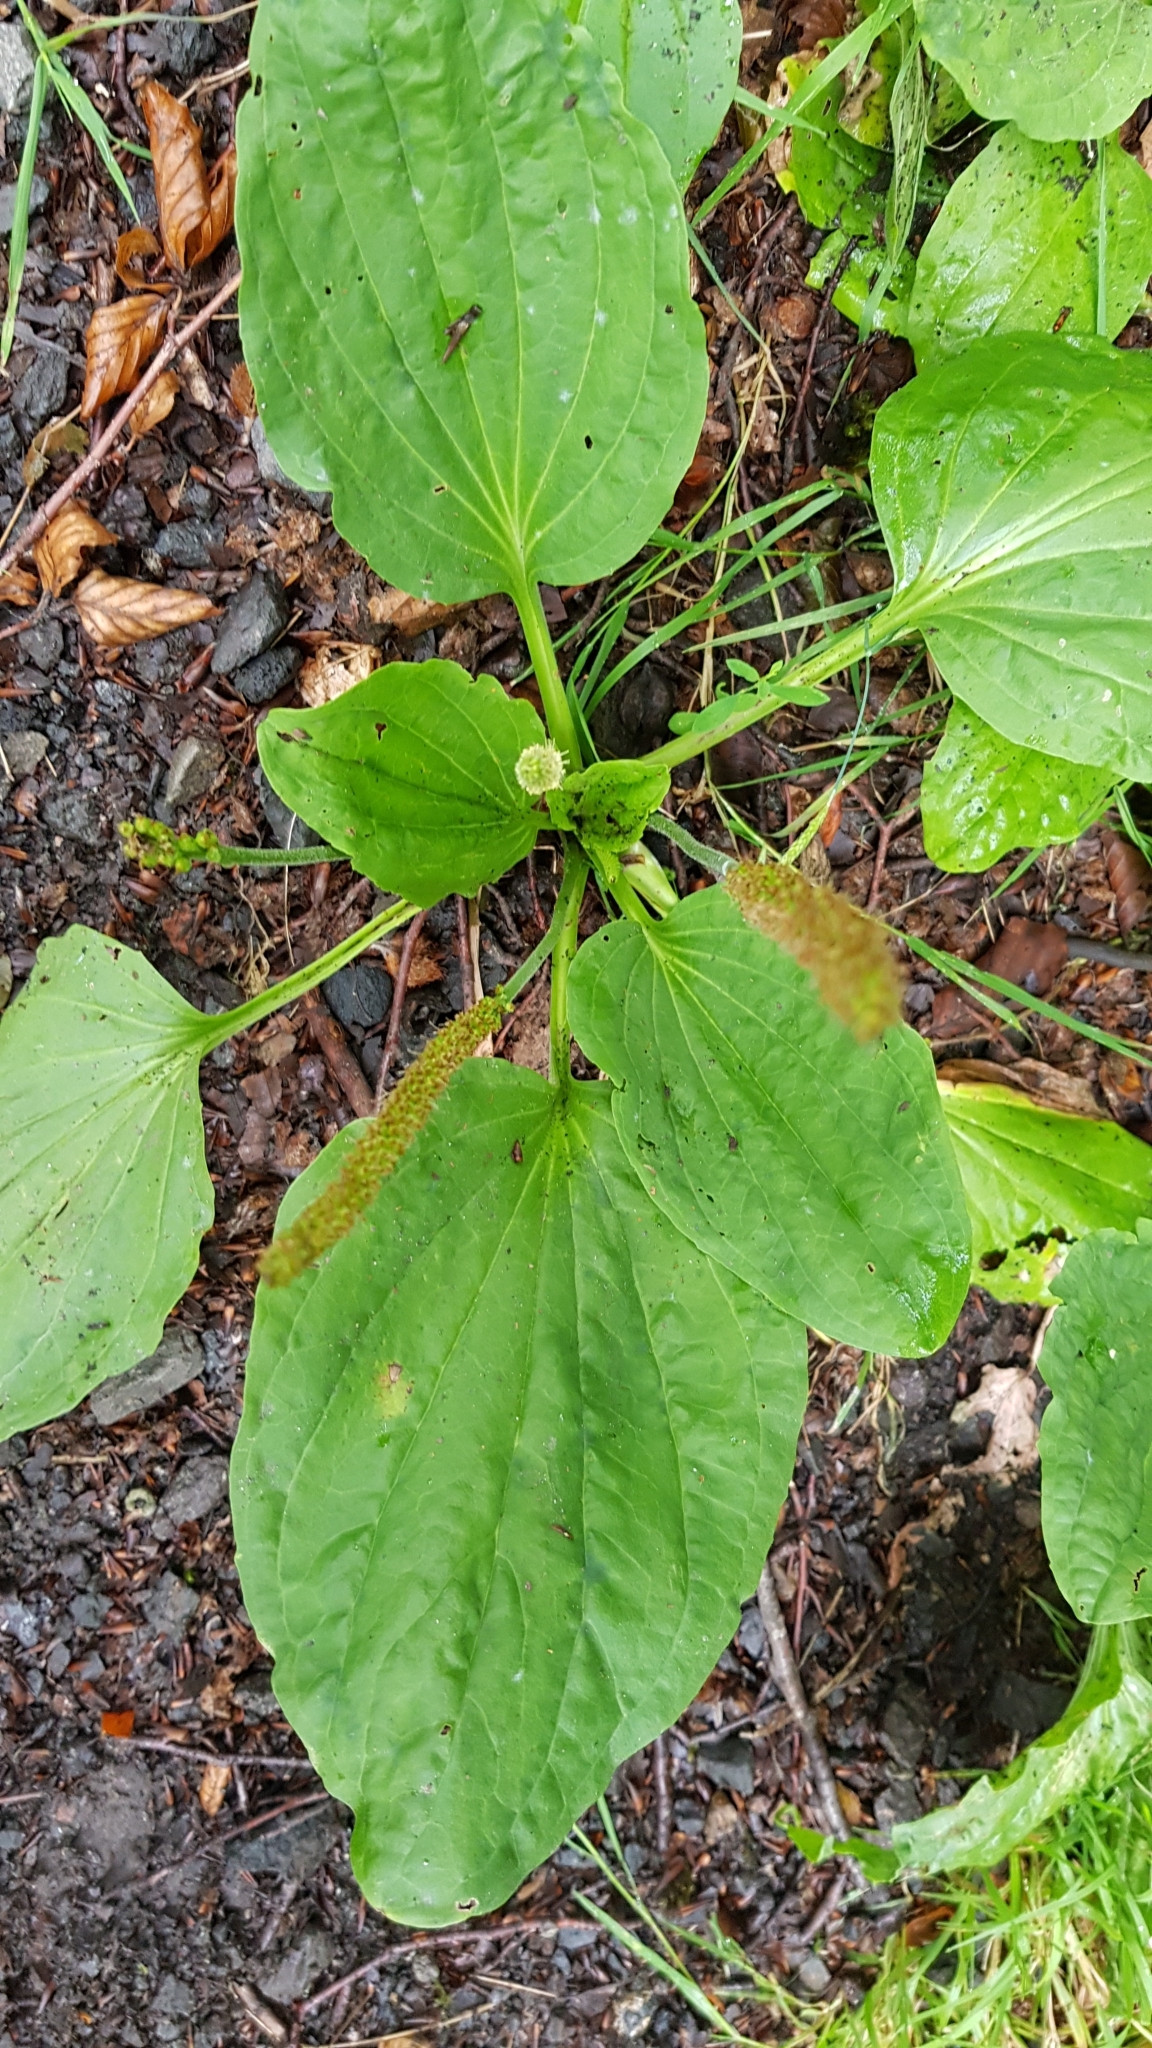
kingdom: Plantae
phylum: Tracheophyta
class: Magnoliopsida
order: Lamiales
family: Plantaginaceae
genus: Plantago
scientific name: Plantago major
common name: Common plantain
